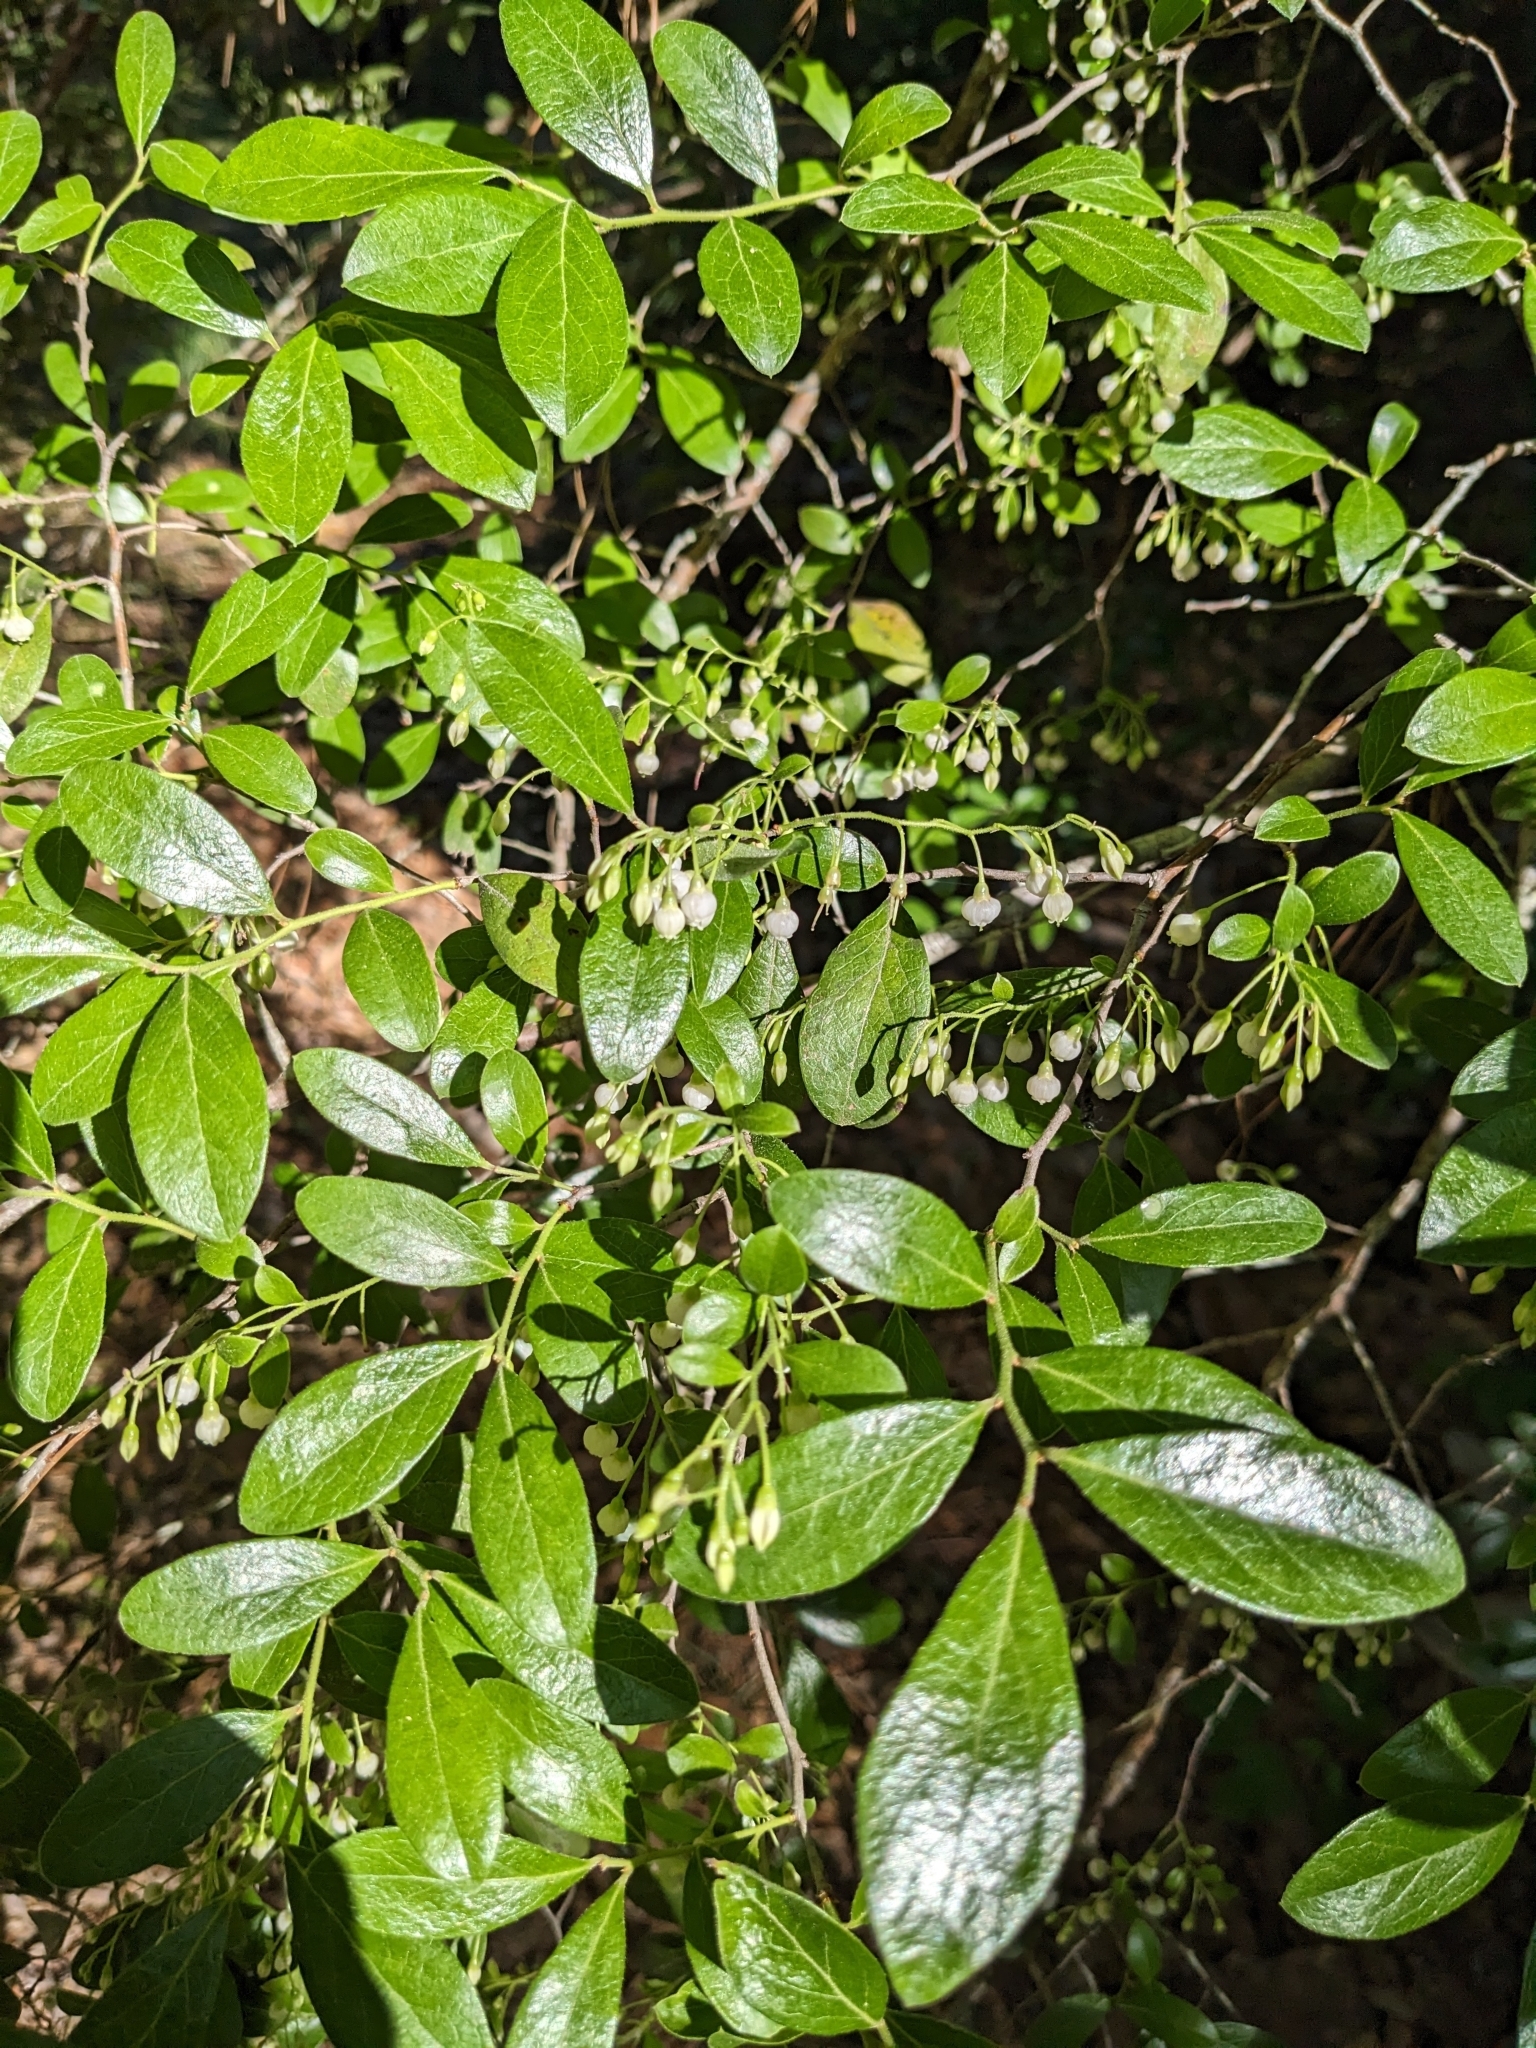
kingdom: Plantae
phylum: Tracheophyta
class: Magnoliopsida
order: Ericales
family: Ericaceae
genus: Vaccinium
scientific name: Vaccinium arboreum
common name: Farkleberry
